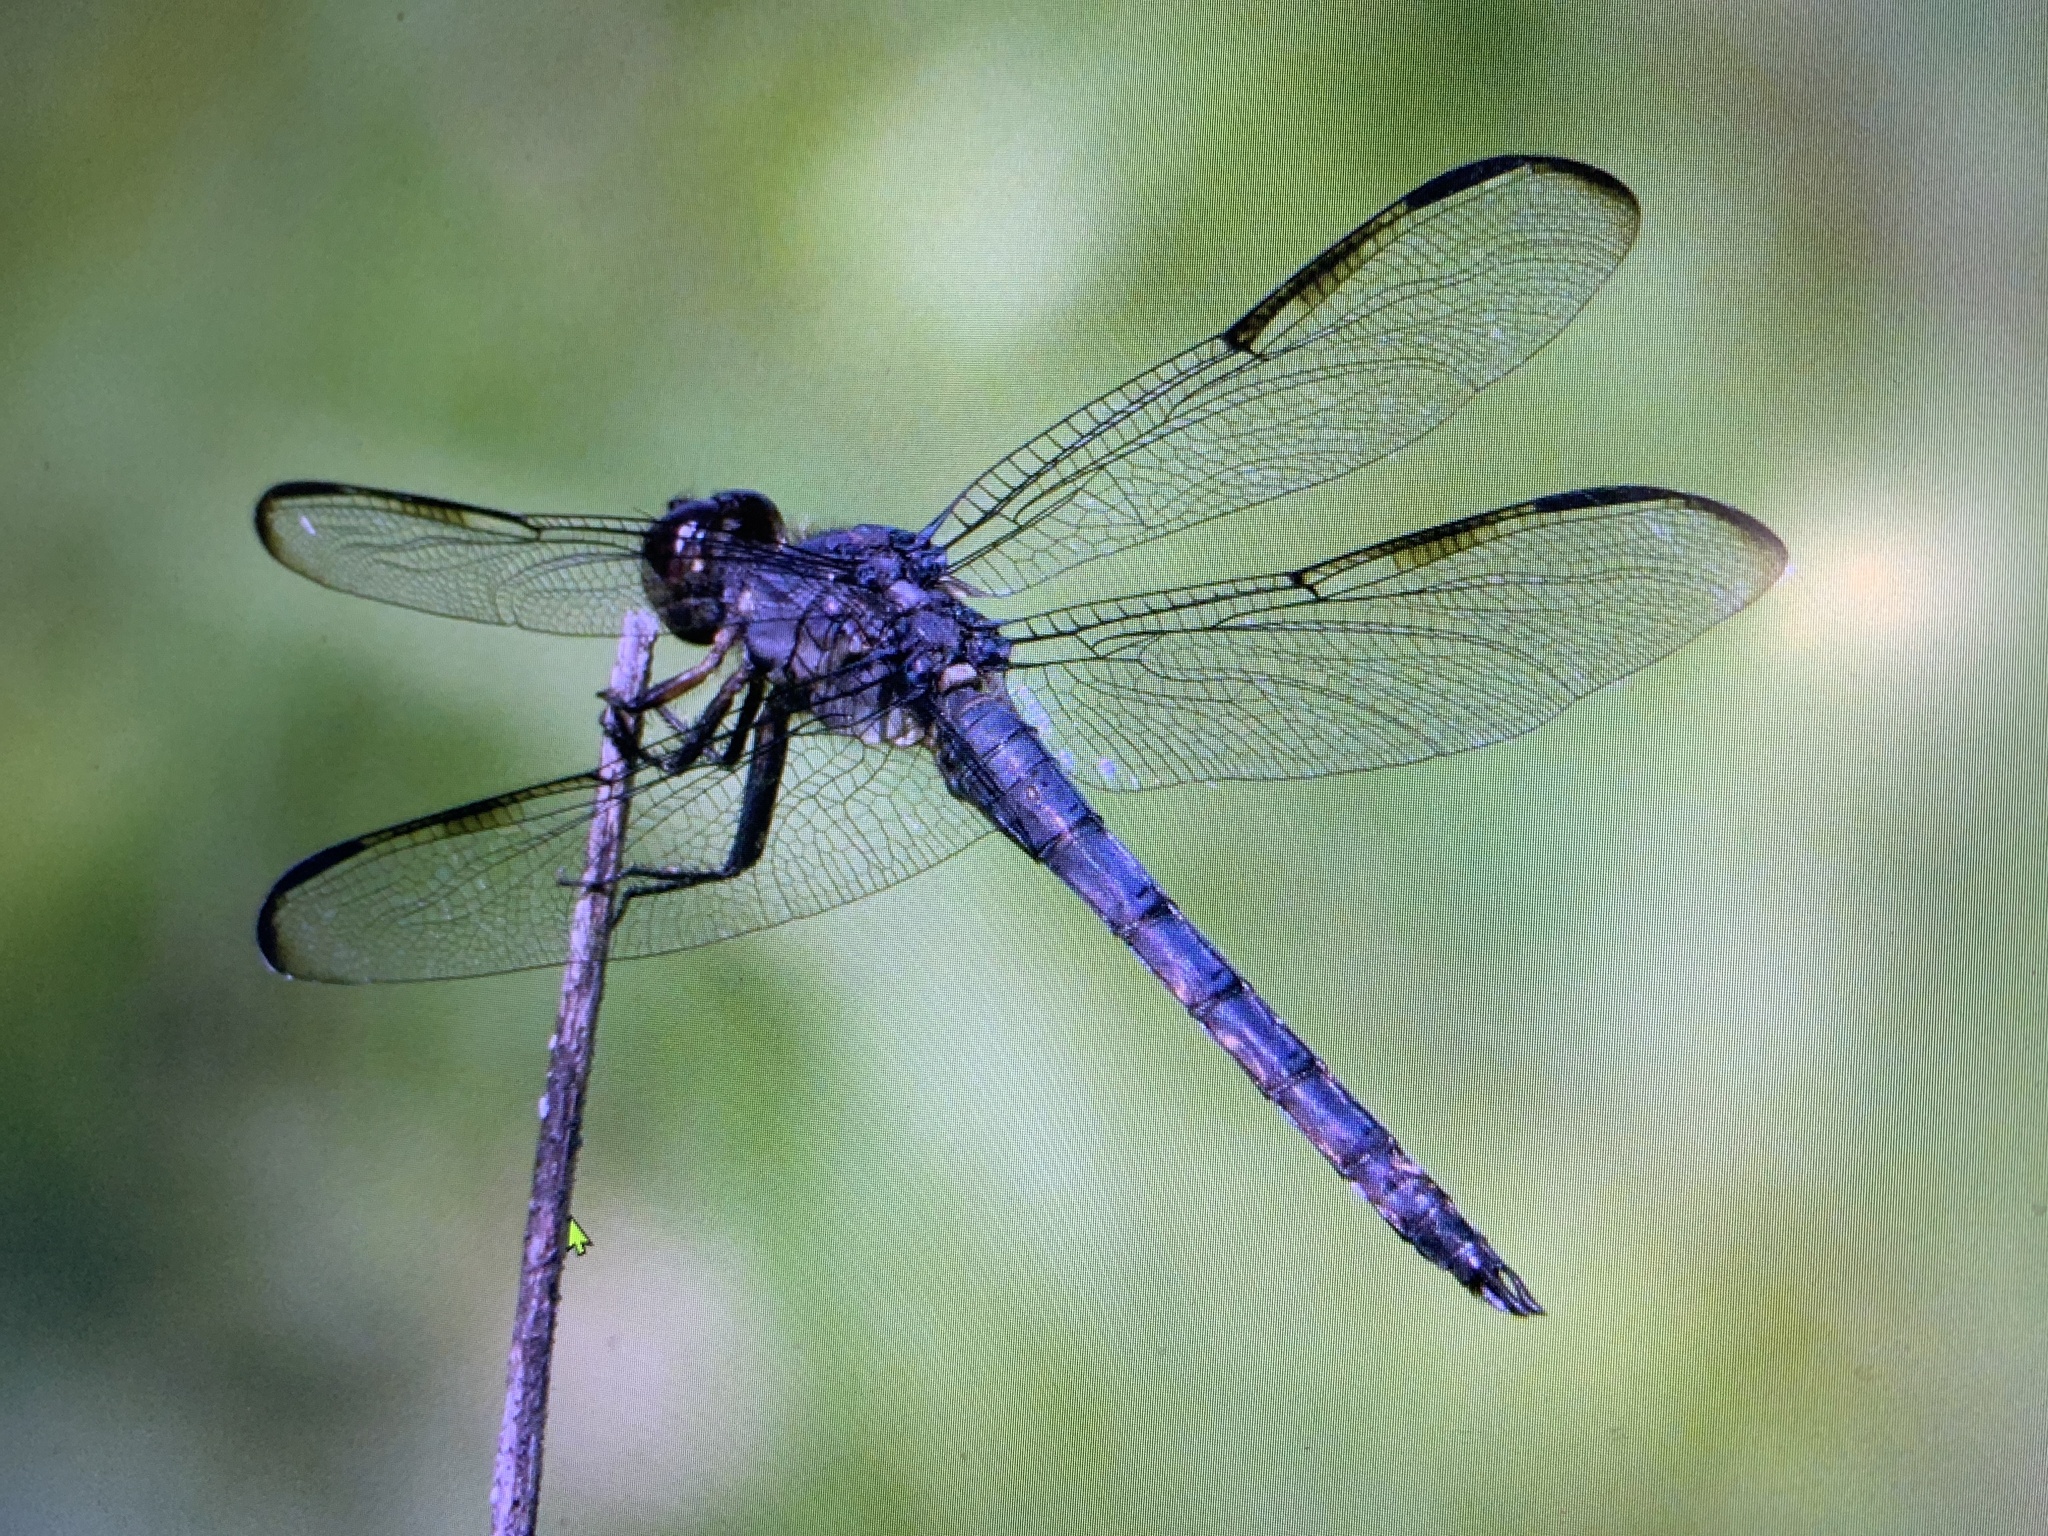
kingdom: Animalia
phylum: Arthropoda
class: Insecta
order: Odonata
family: Libellulidae
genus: Libellula
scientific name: Libellula incesta
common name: Slaty skimmer
